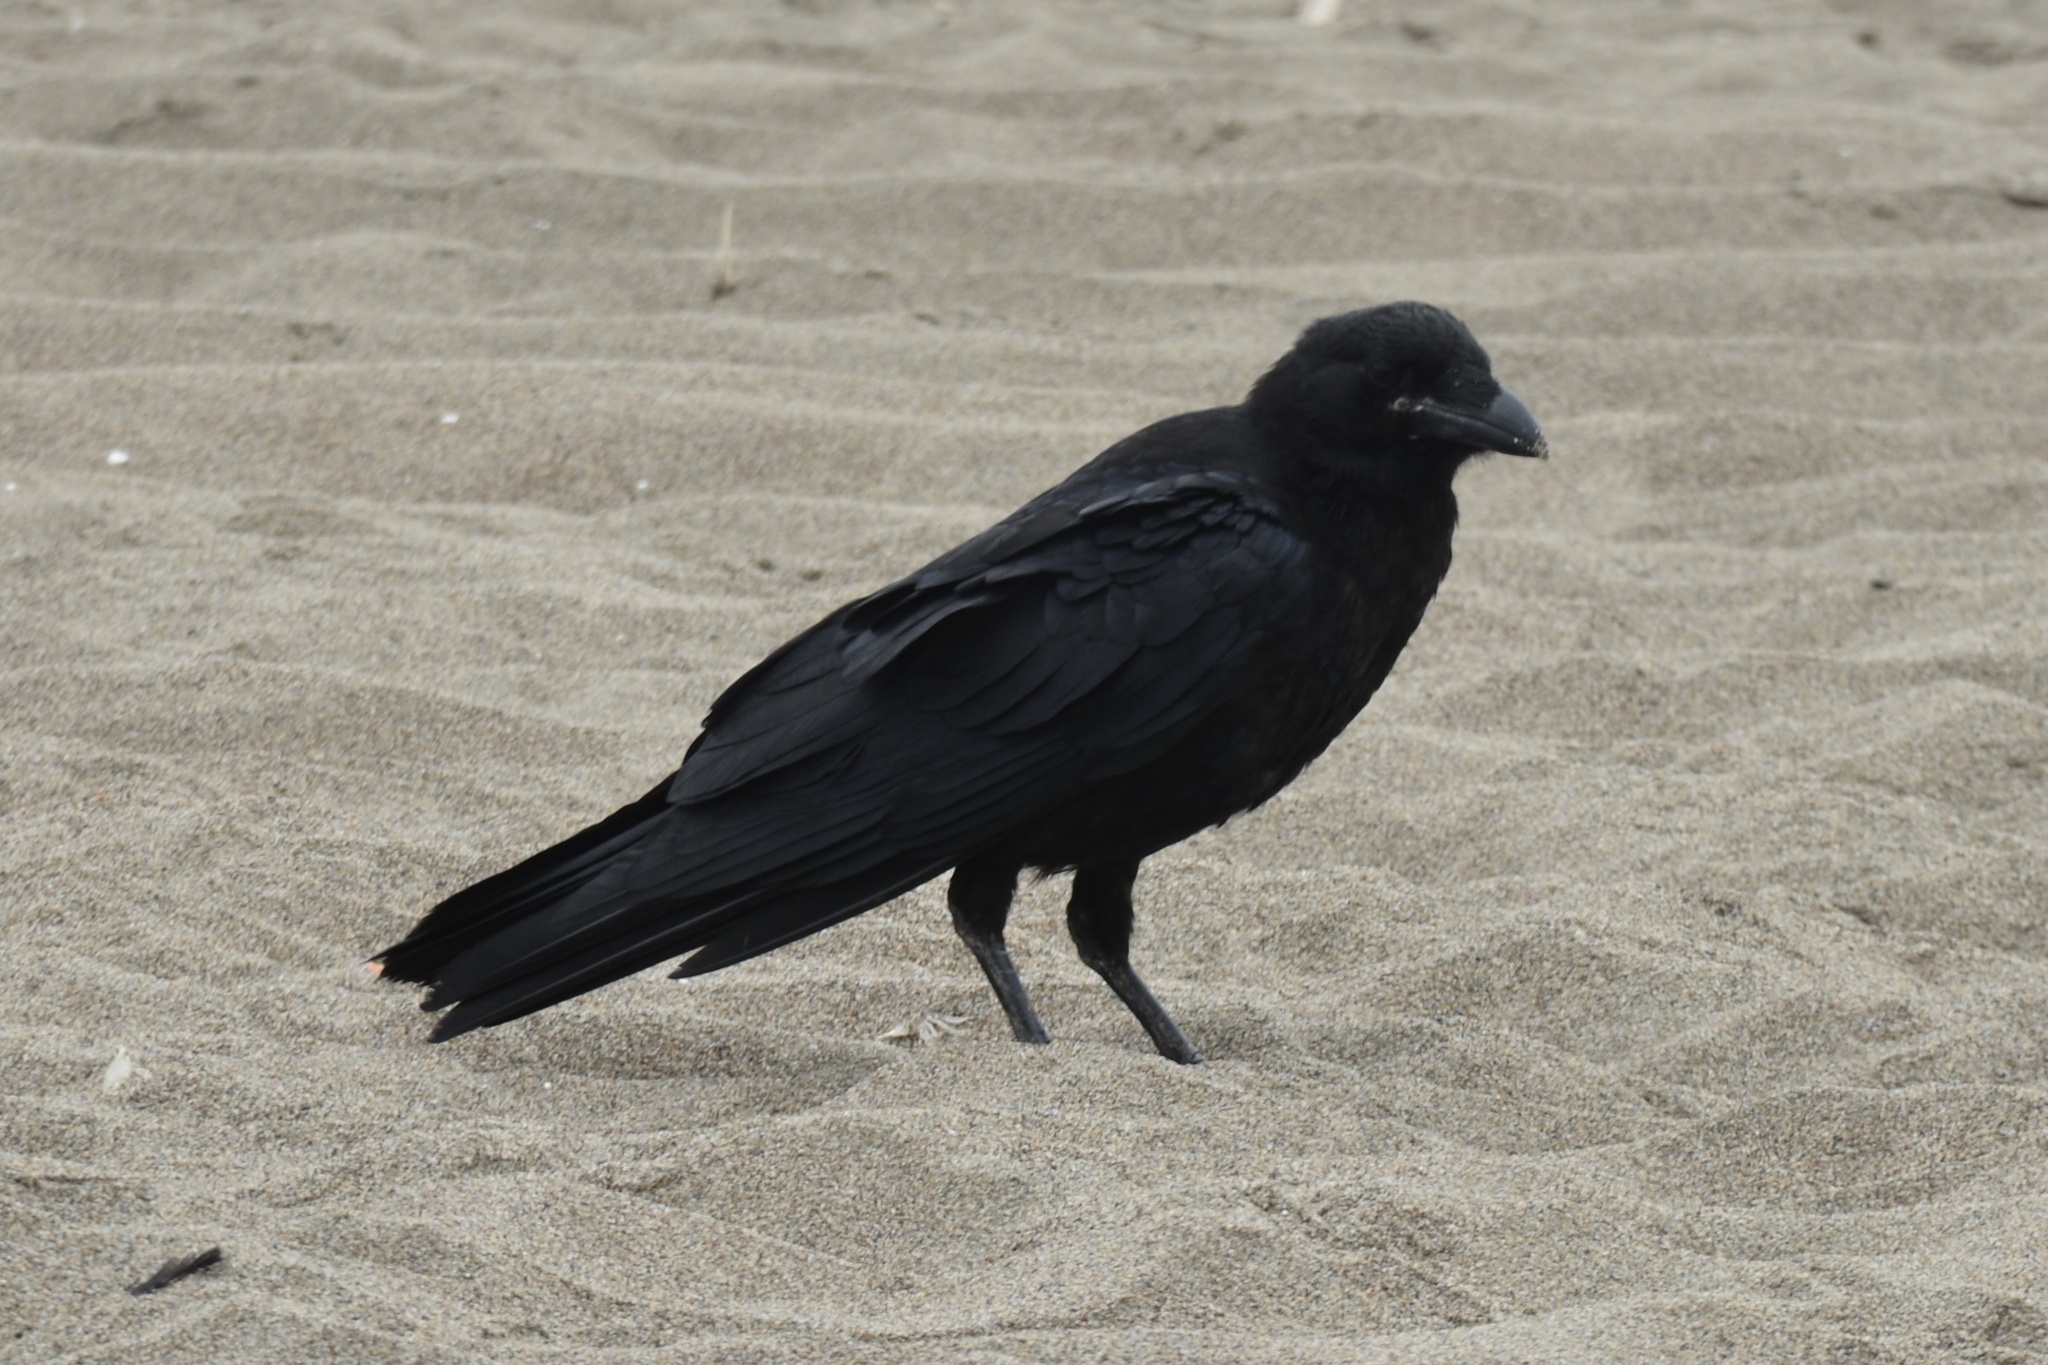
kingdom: Animalia
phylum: Chordata
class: Aves
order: Passeriformes
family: Corvidae
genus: Corvus
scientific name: Corvus corax
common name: Common raven
